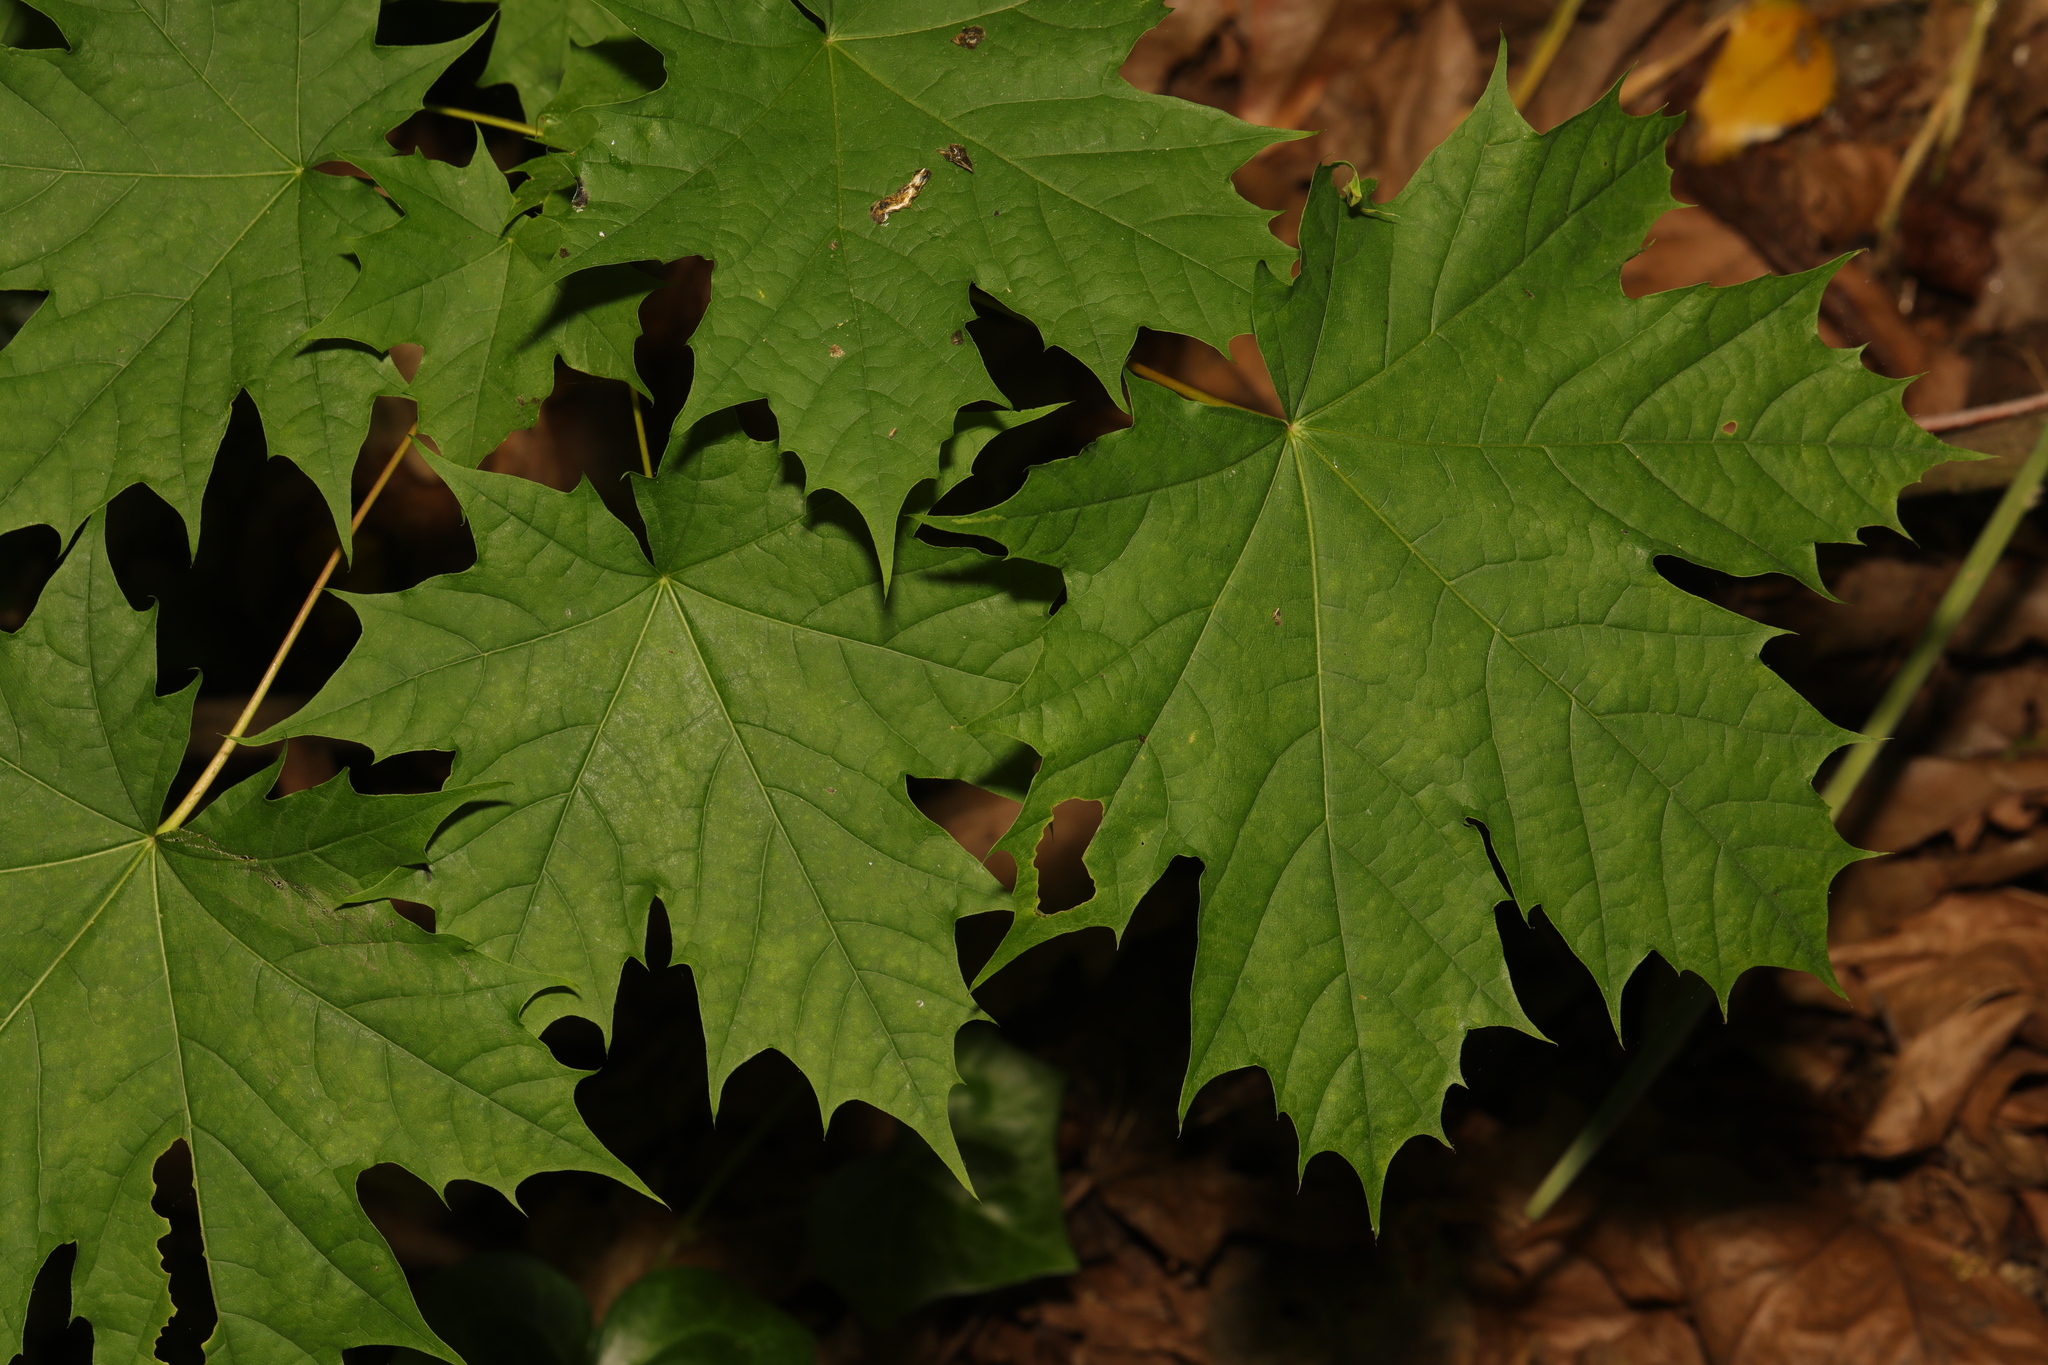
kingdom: Plantae
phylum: Tracheophyta
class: Magnoliopsida
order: Sapindales
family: Sapindaceae
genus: Acer
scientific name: Acer platanoides
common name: Norway maple
